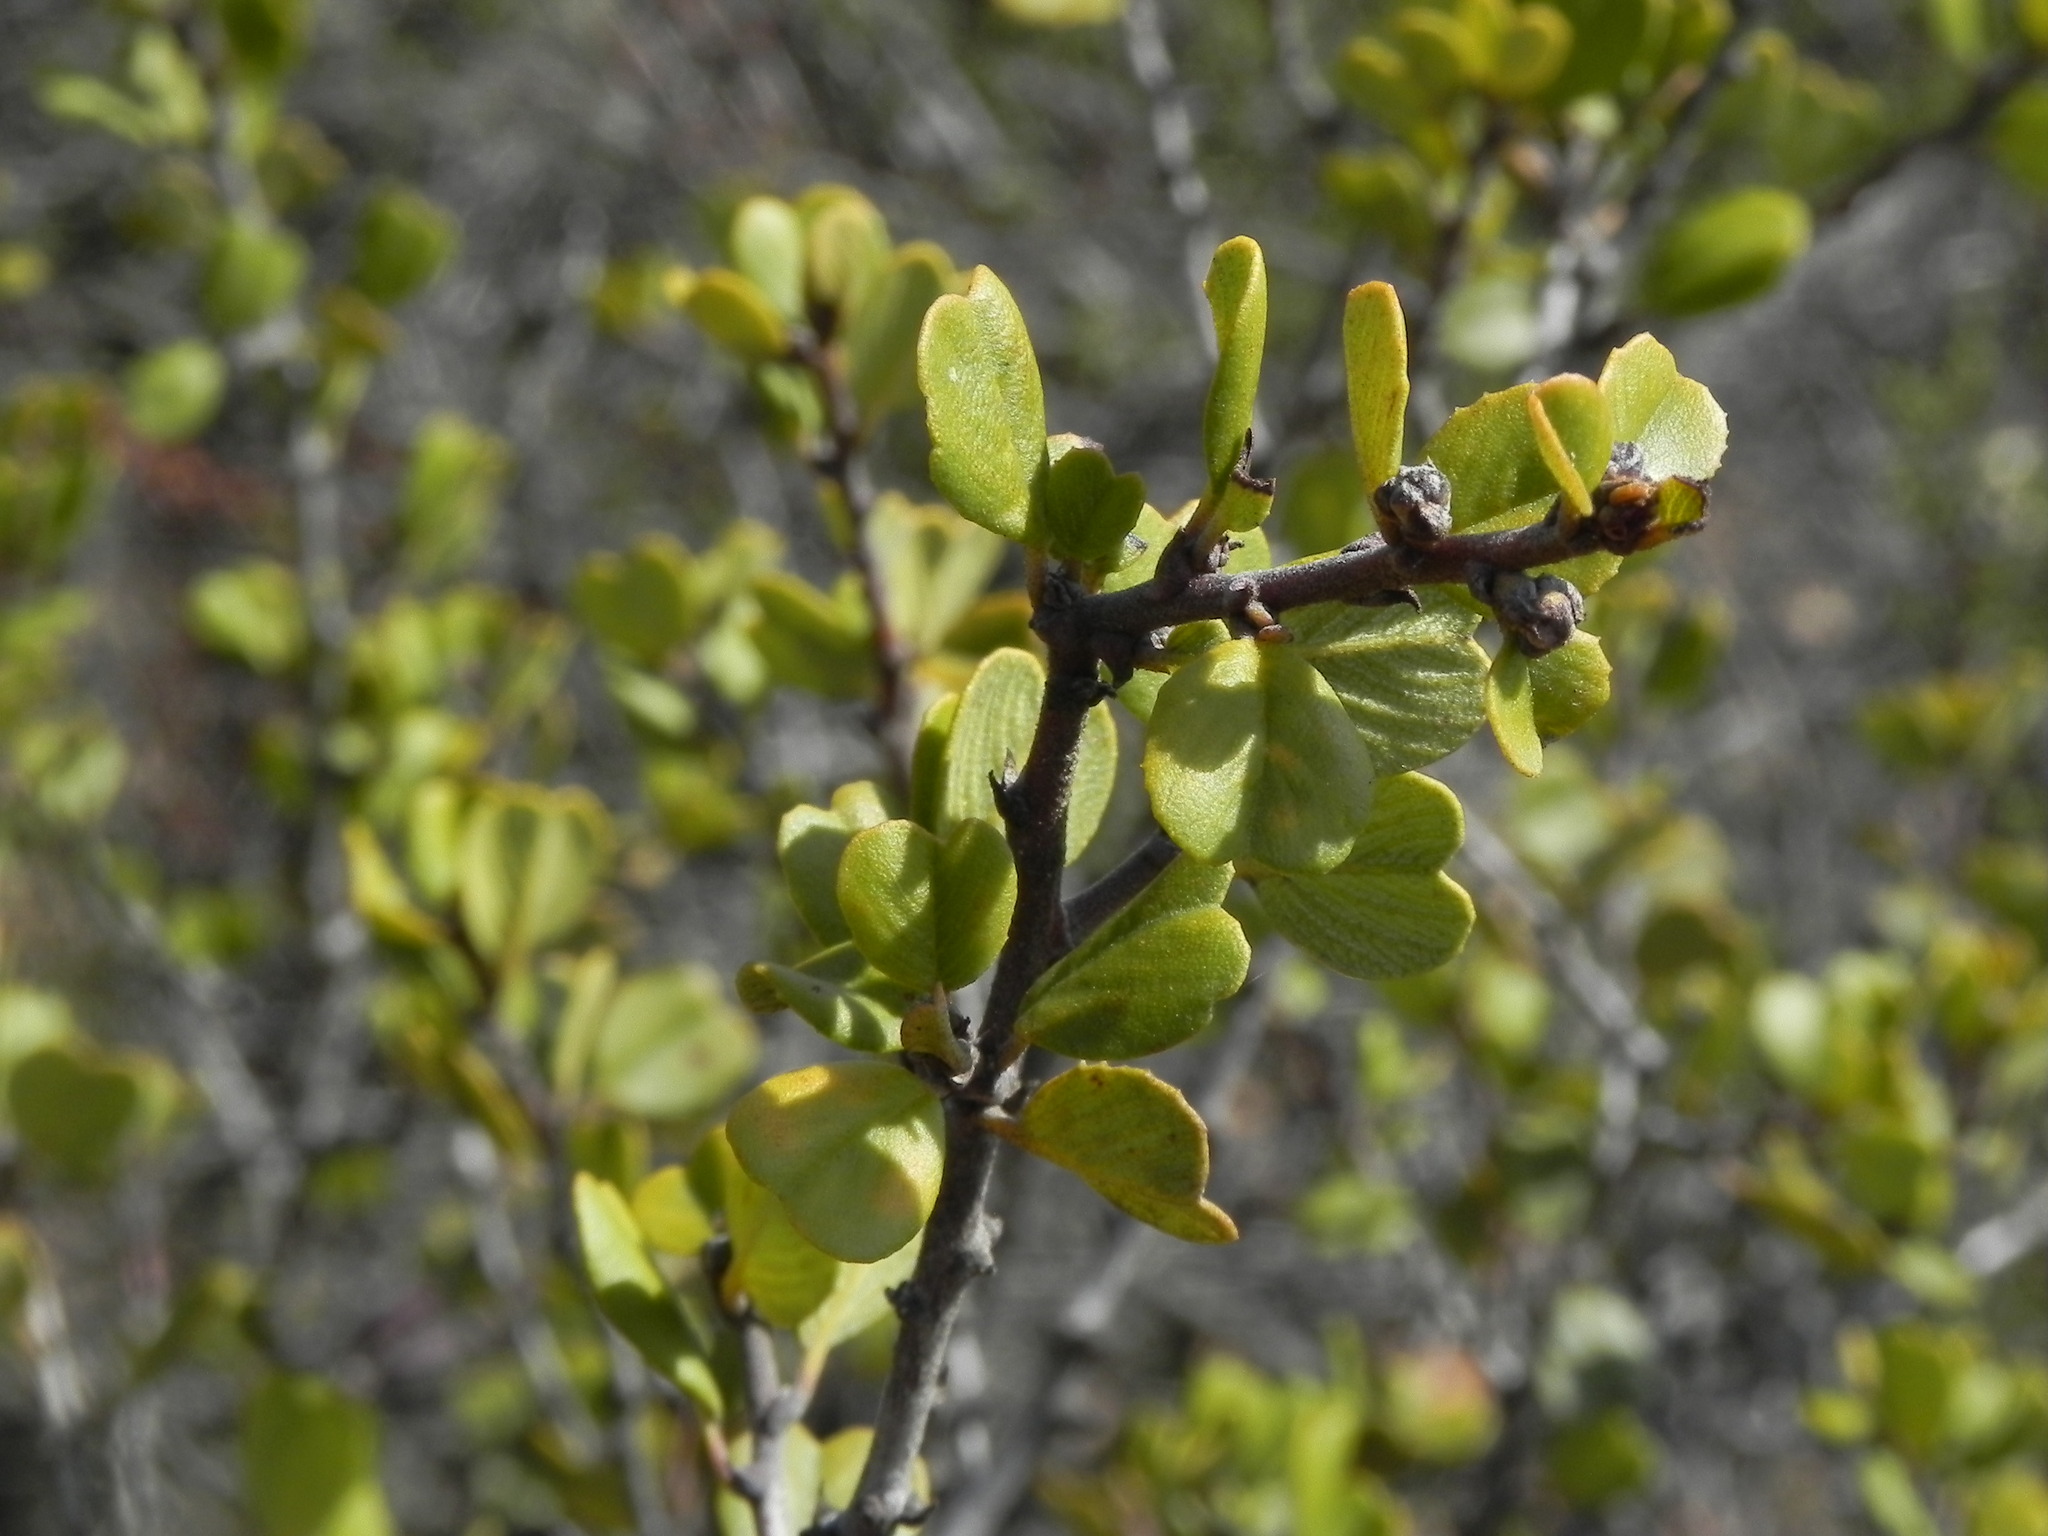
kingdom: Plantae
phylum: Tracheophyta
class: Magnoliopsida
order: Rosales
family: Rhamnaceae
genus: Ceanothus
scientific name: Ceanothus verrucosus
